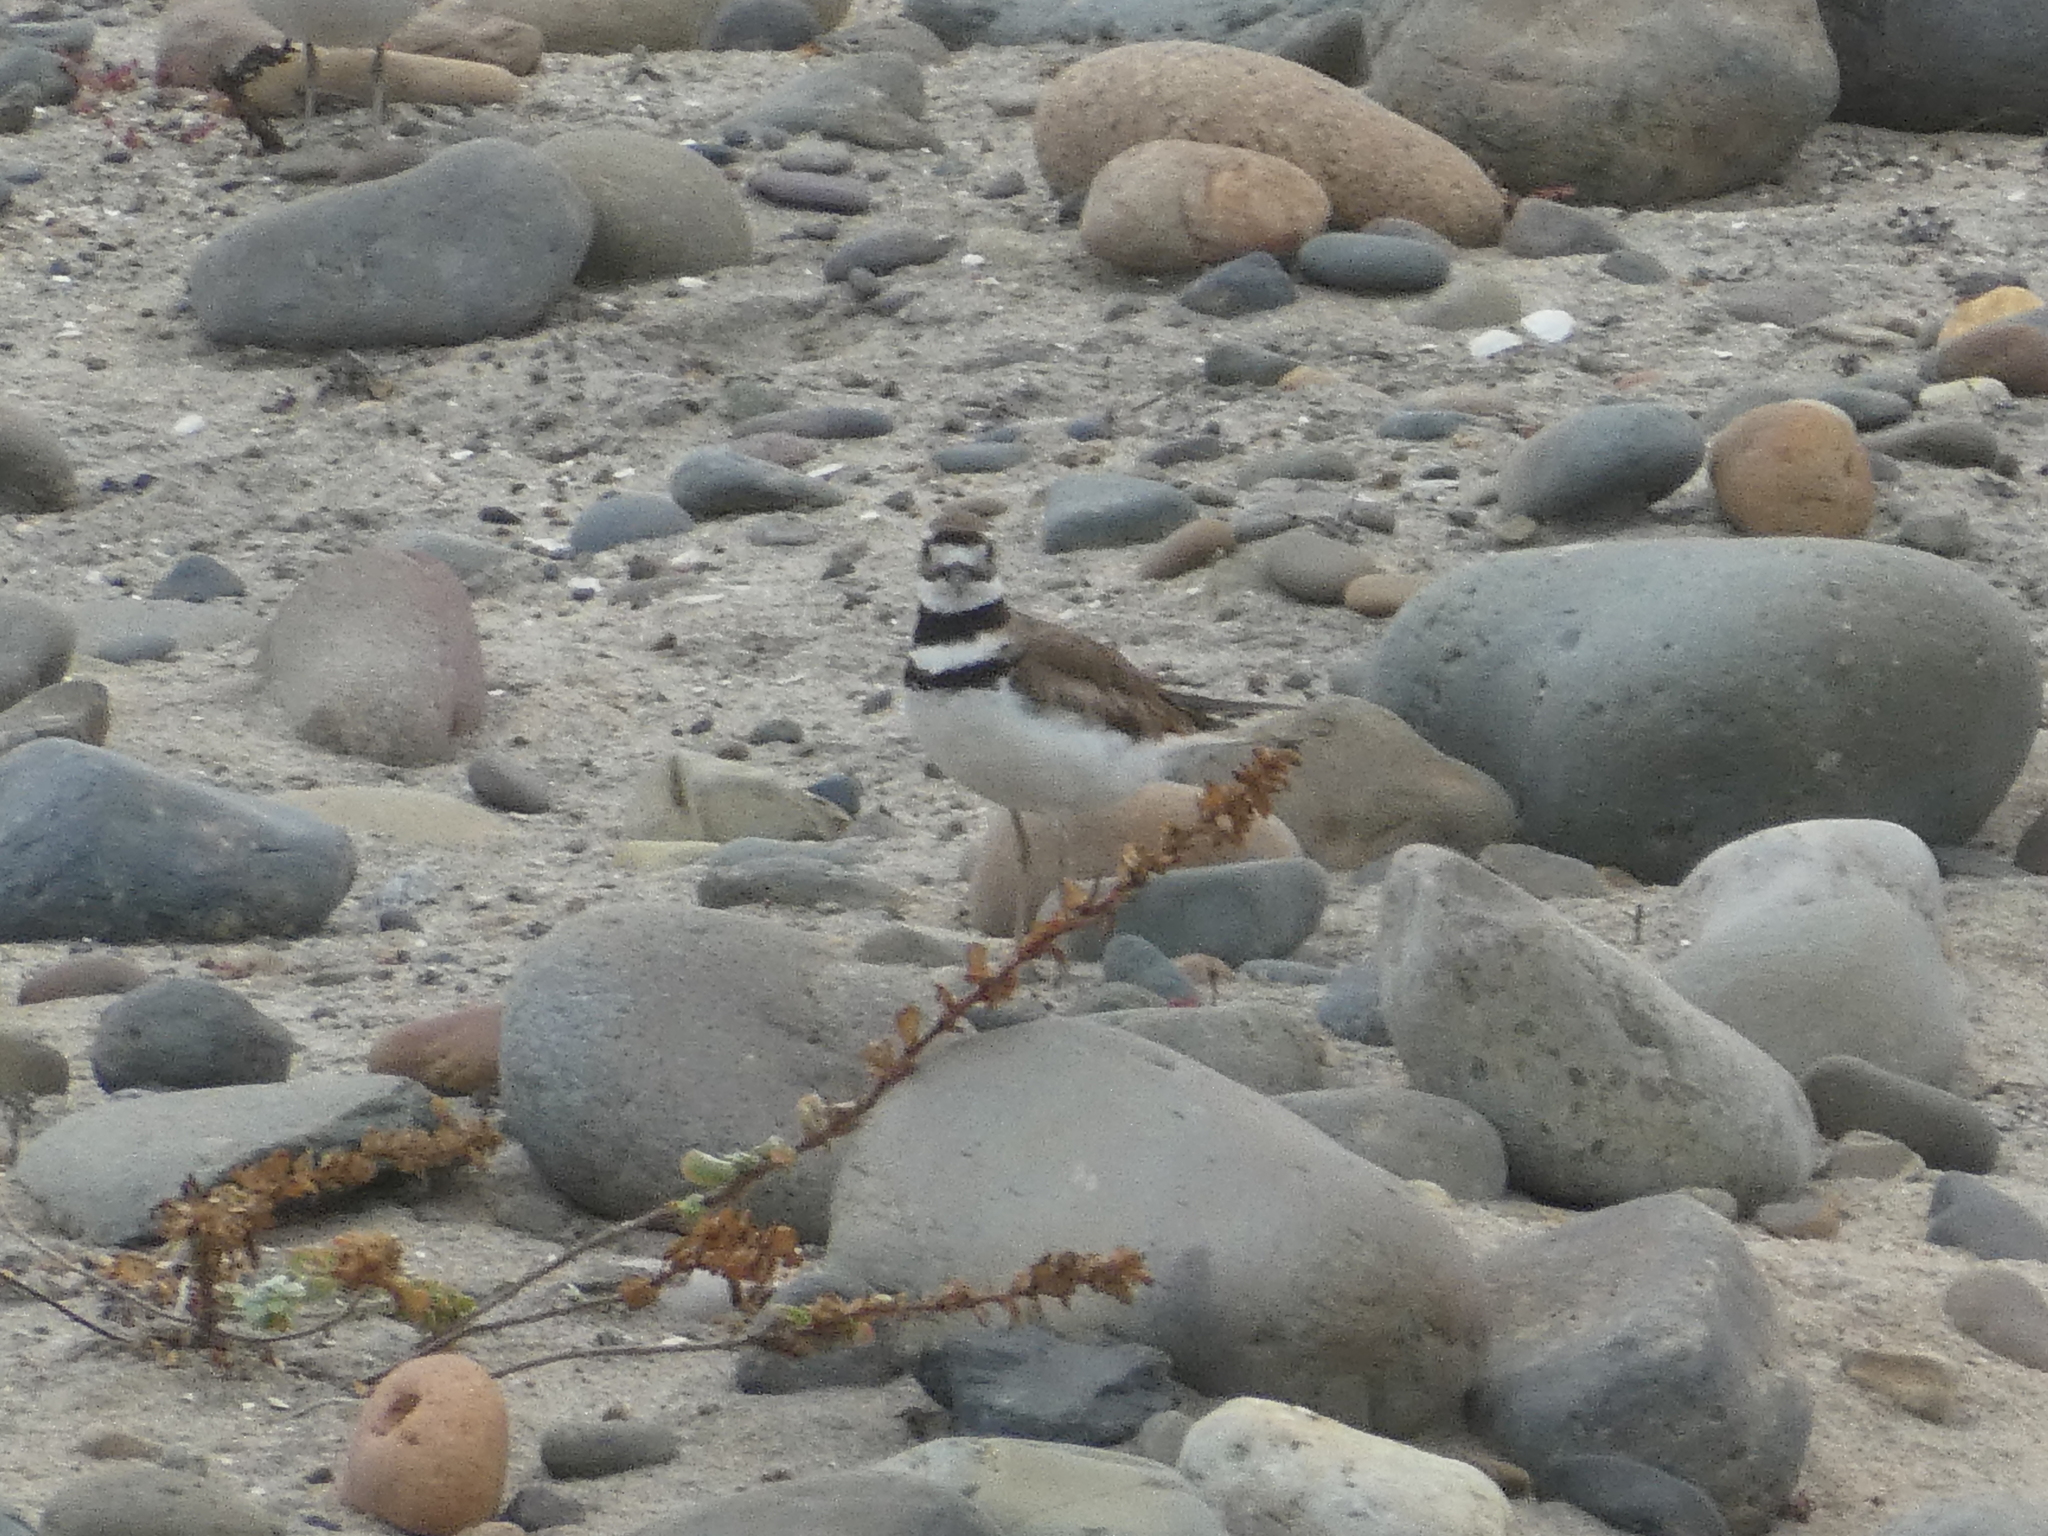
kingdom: Animalia
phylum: Chordata
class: Aves
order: Charadriiformes
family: Charadriidae
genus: Charadrius
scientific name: Charadrius vociferus
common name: Killdeer
